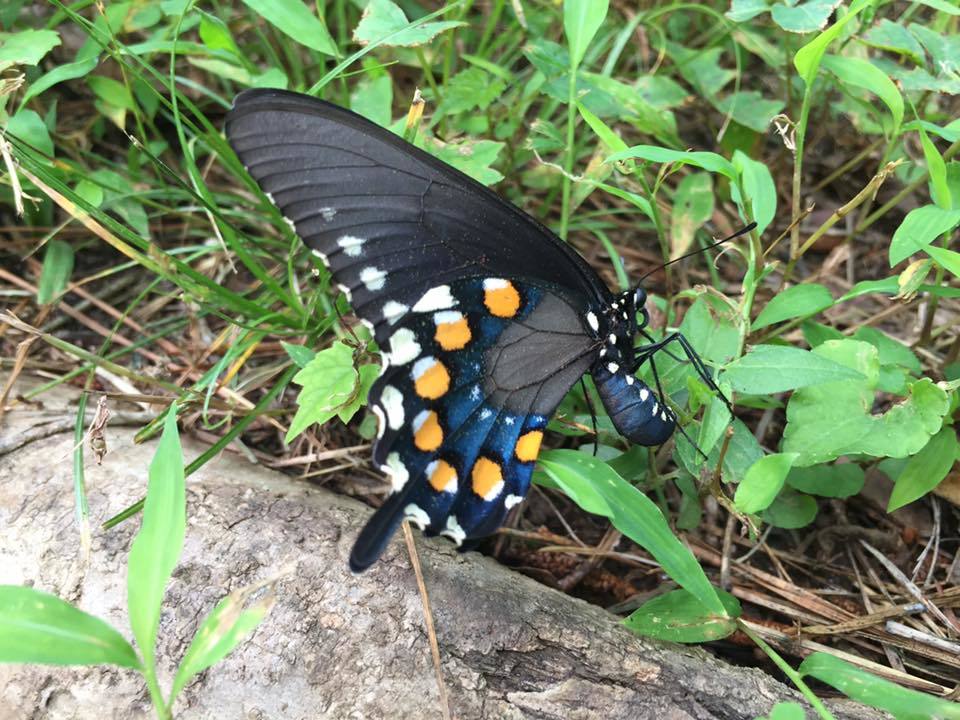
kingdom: Animalia
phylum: Arthropoda
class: Insecta
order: Lepidoptera
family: Papilionidae
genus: Battus
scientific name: Battus philenor
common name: Pipevine swallowtail
